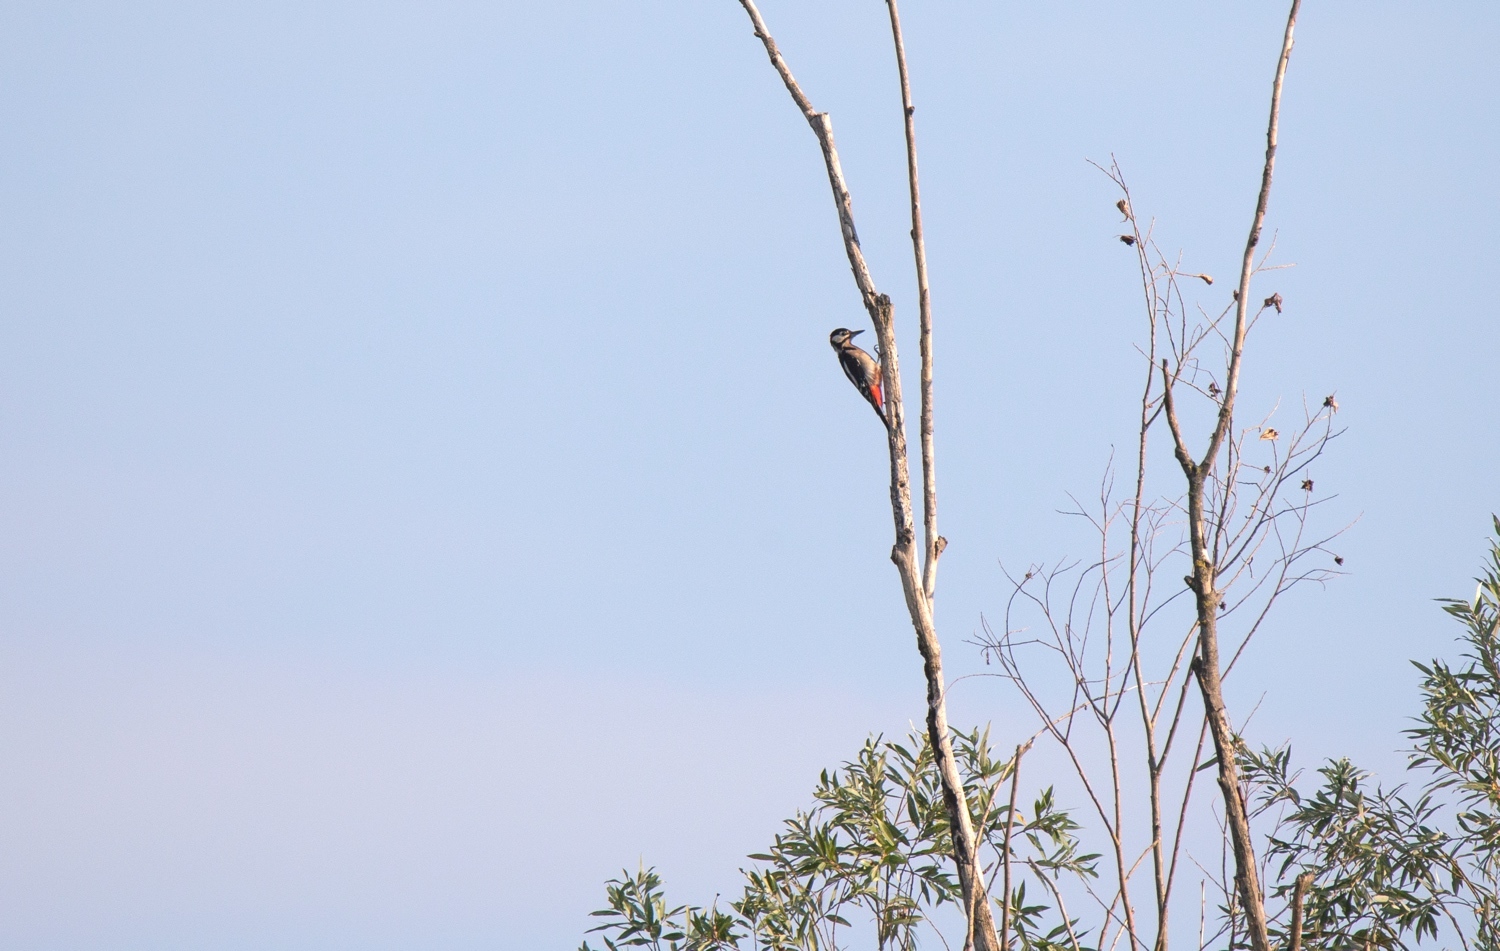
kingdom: Animalia
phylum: Chordata
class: Aves
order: Piciformes
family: Picidae
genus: Dendrocopos
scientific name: Dendrocopos major
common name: Great spotted woodpecker
